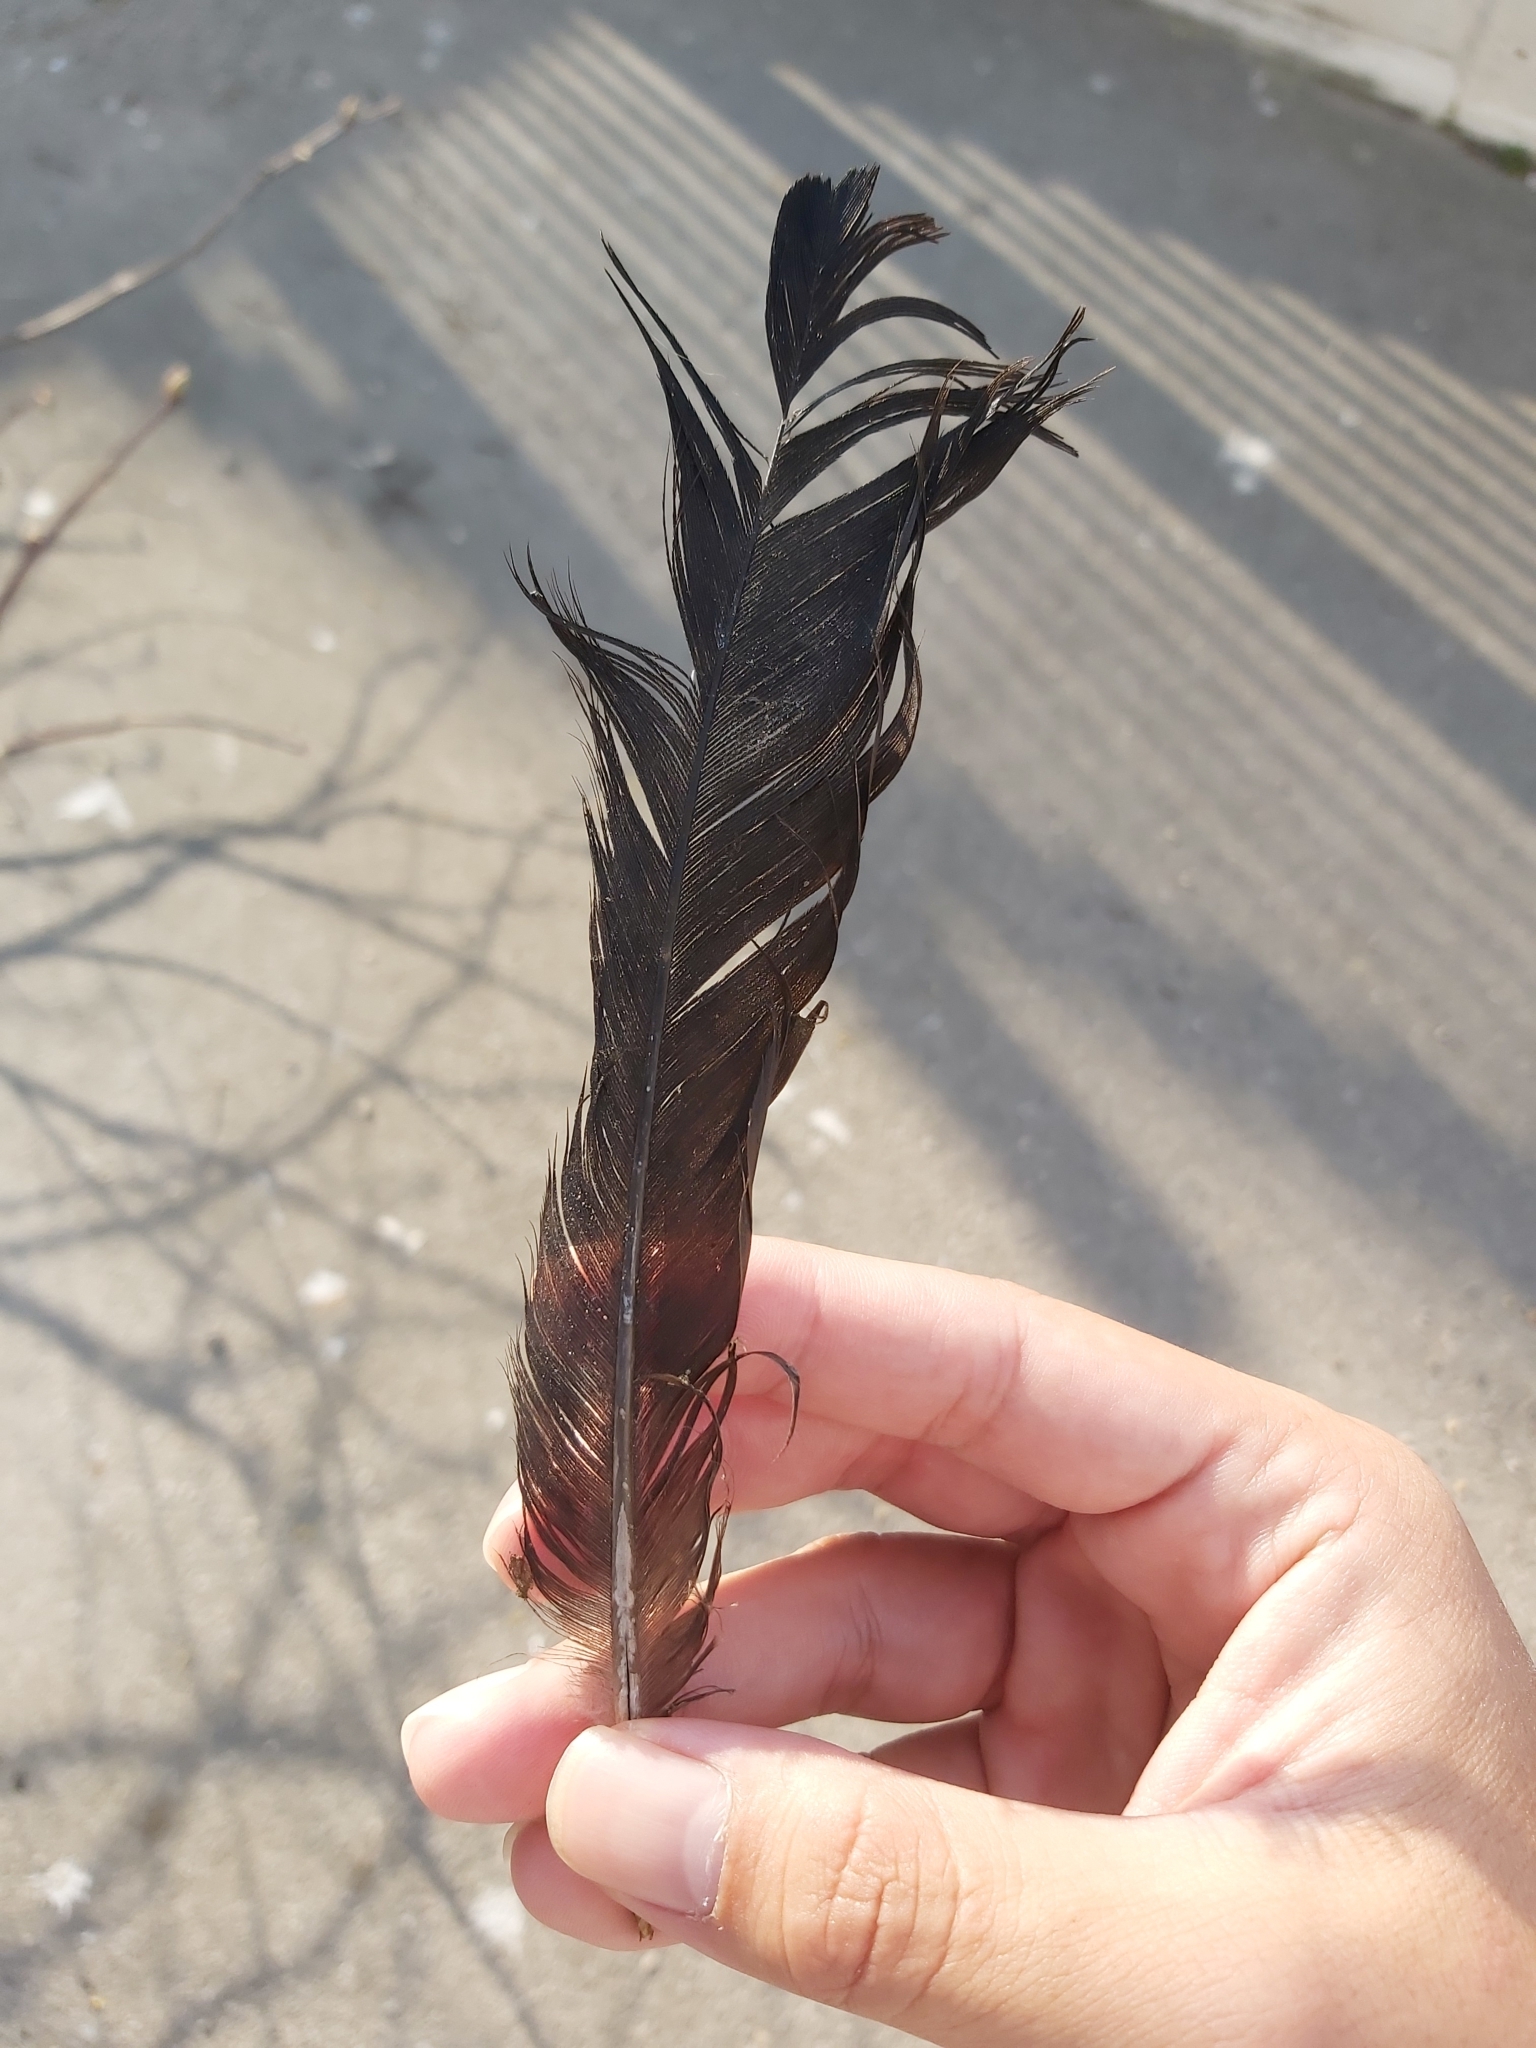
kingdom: Animalia
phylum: Chordata
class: Aves
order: Passeriformes
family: Corvidae
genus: Corvus
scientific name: Corvus cornix
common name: Hooded crow
